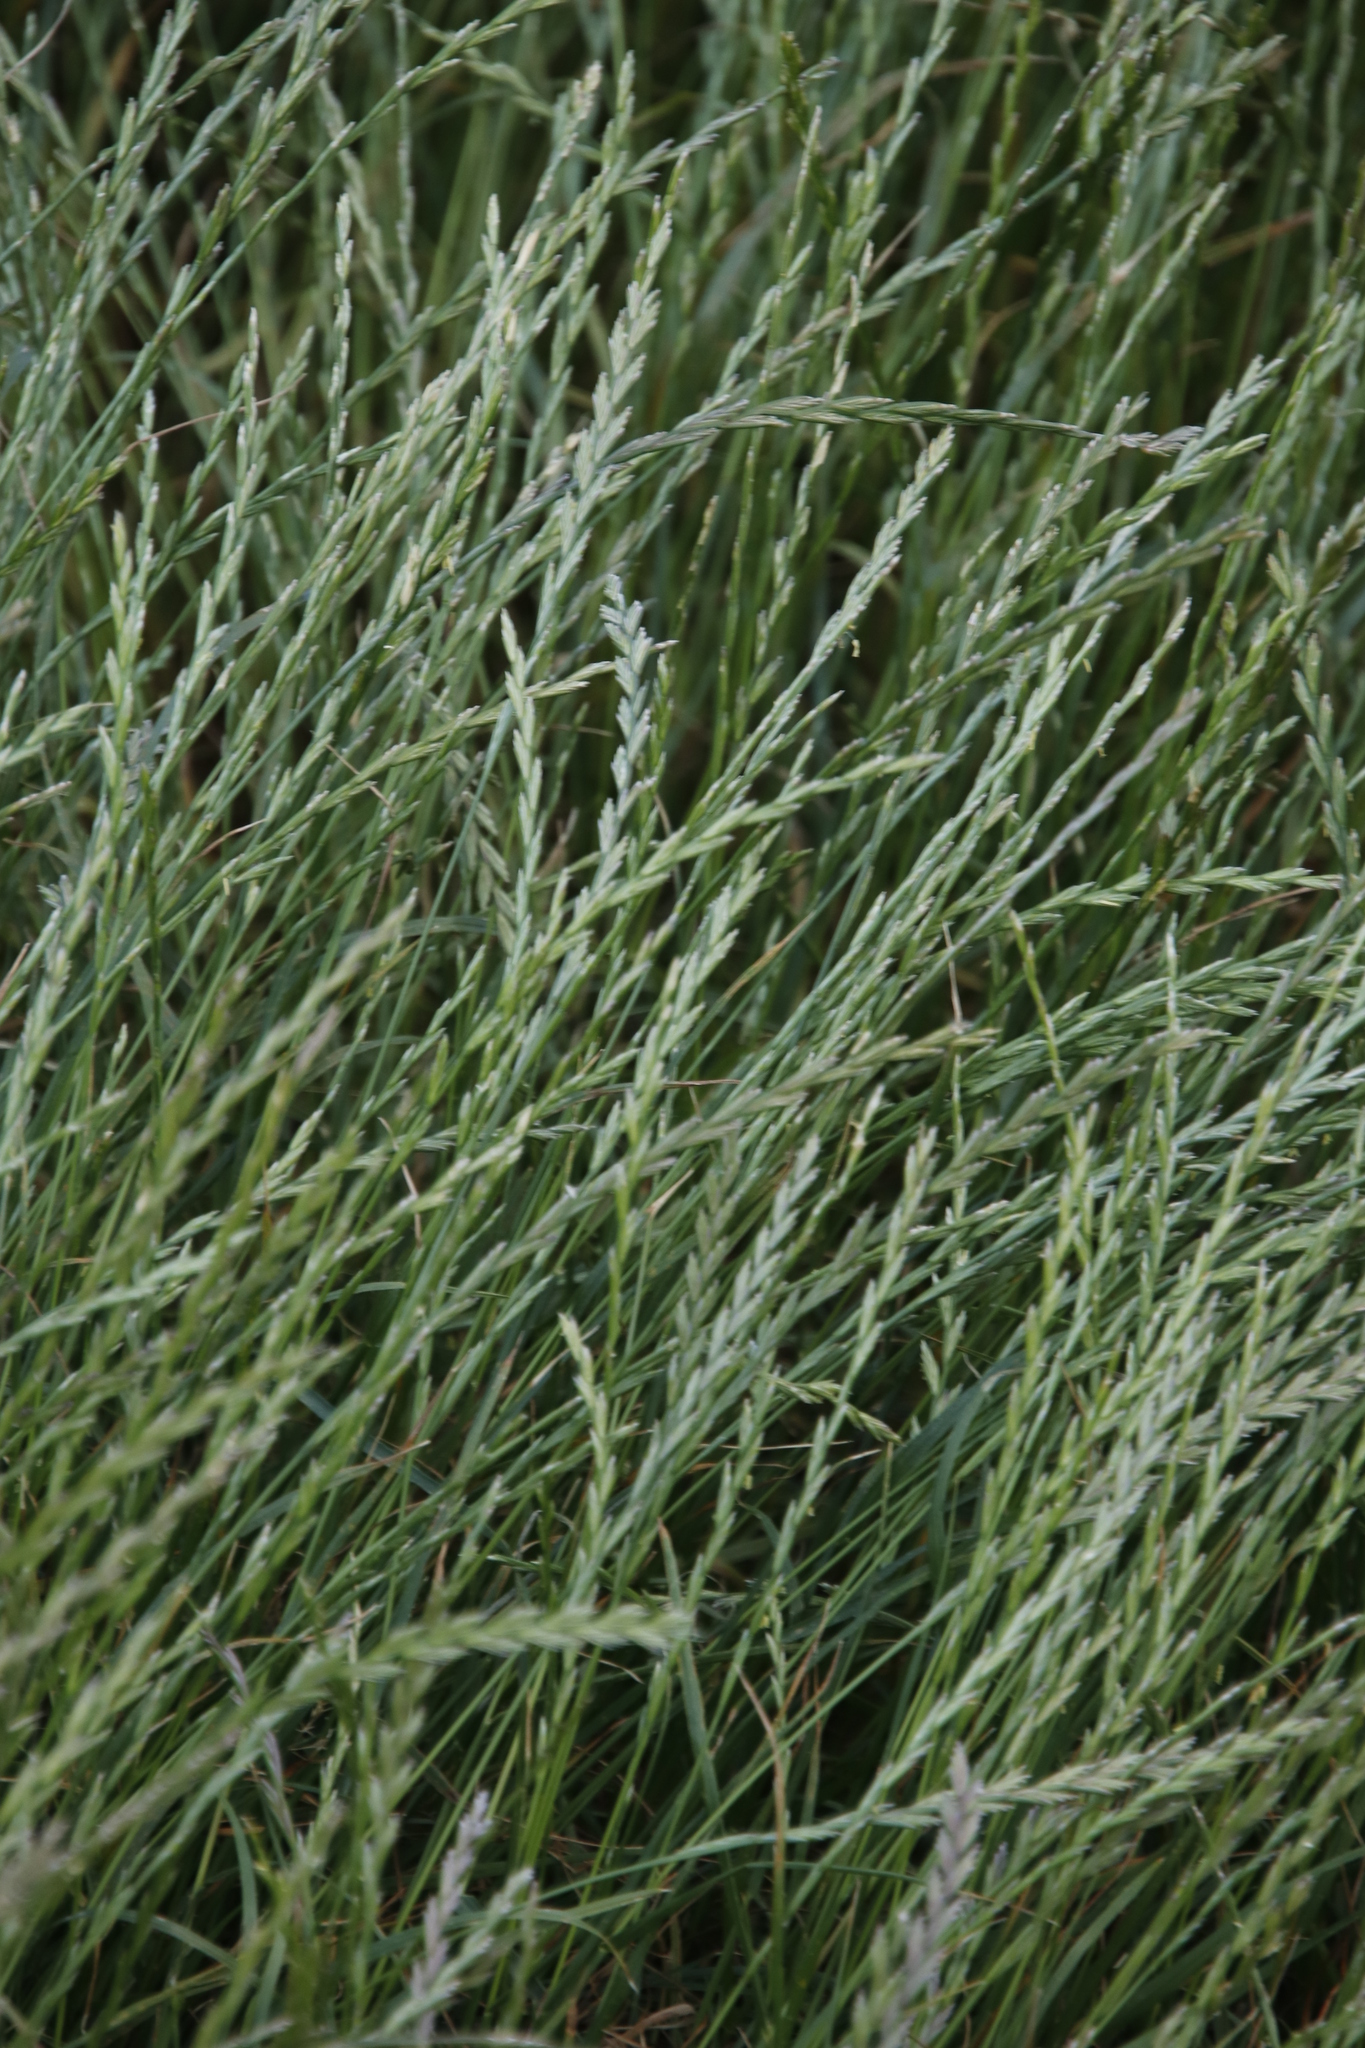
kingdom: Plantae
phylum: Tracheophyta
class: Liliopsida
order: Poales
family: Poaceae
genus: Lolium
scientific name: Lolium perenne
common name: Perennial ryegrass
